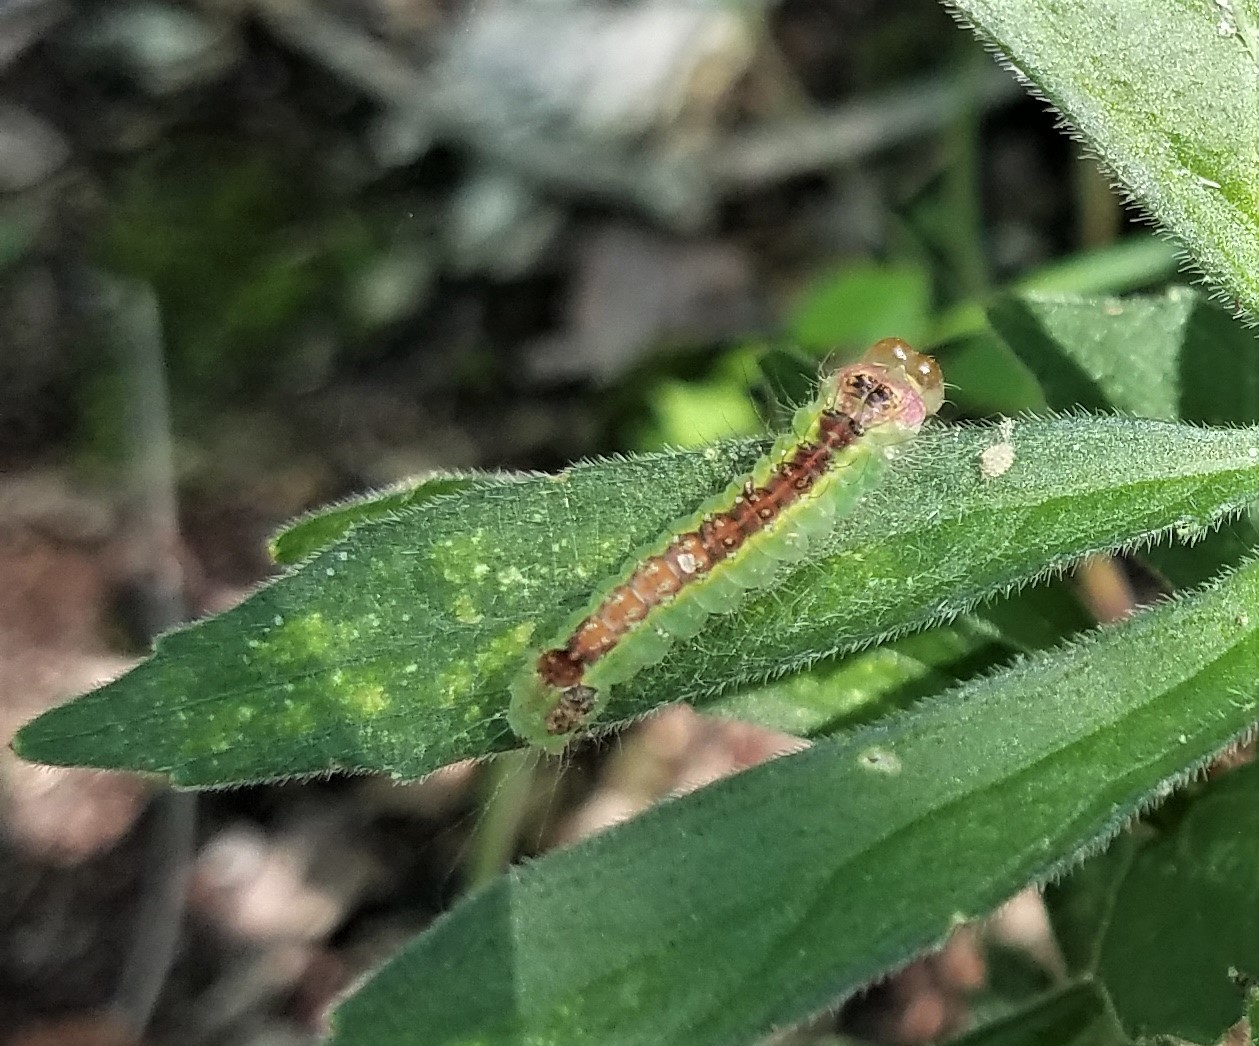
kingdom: Animalia
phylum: Arthropoda
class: Insecta
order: Lepidoptera
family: Noctuidae
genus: Acronicta
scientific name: Acronicta radcliffei
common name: Radcliffe's dagger
